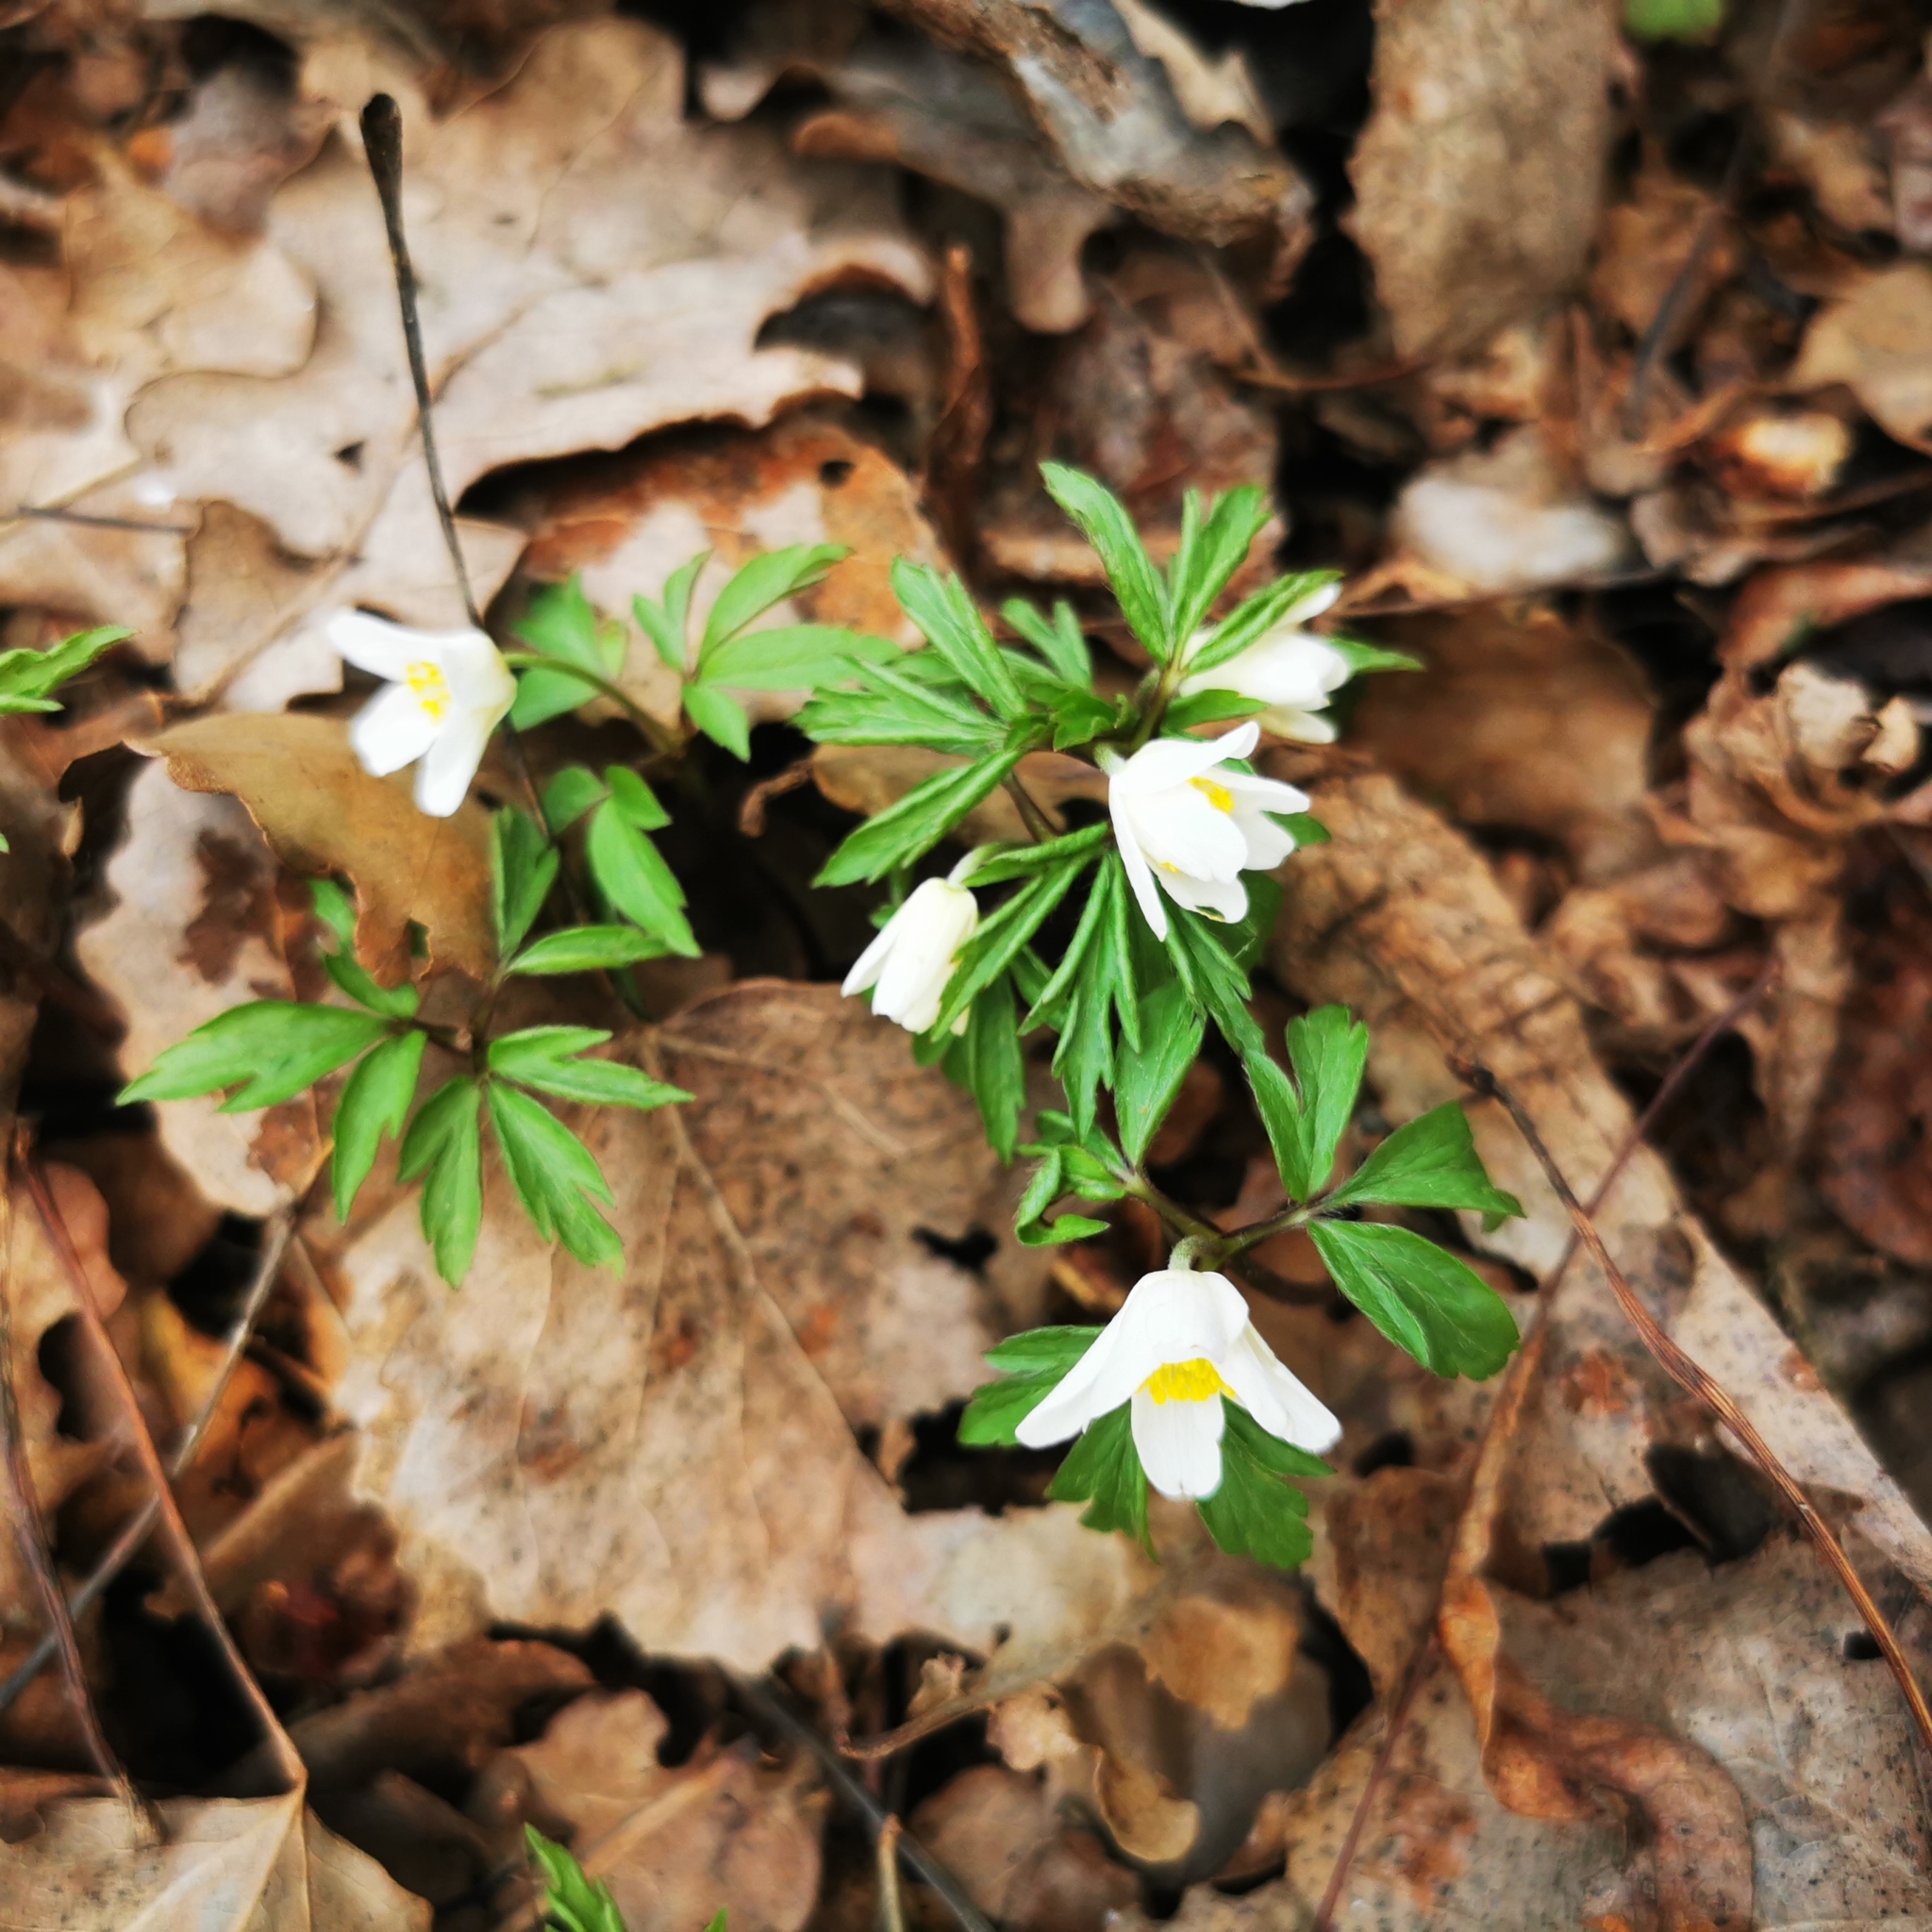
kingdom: Plantae
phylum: Tracheophyta
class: Magnoliopsida
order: Ranunculales
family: Ranunculaceae
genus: Anemone
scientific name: Anemone nemorosa
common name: Wood anemone
